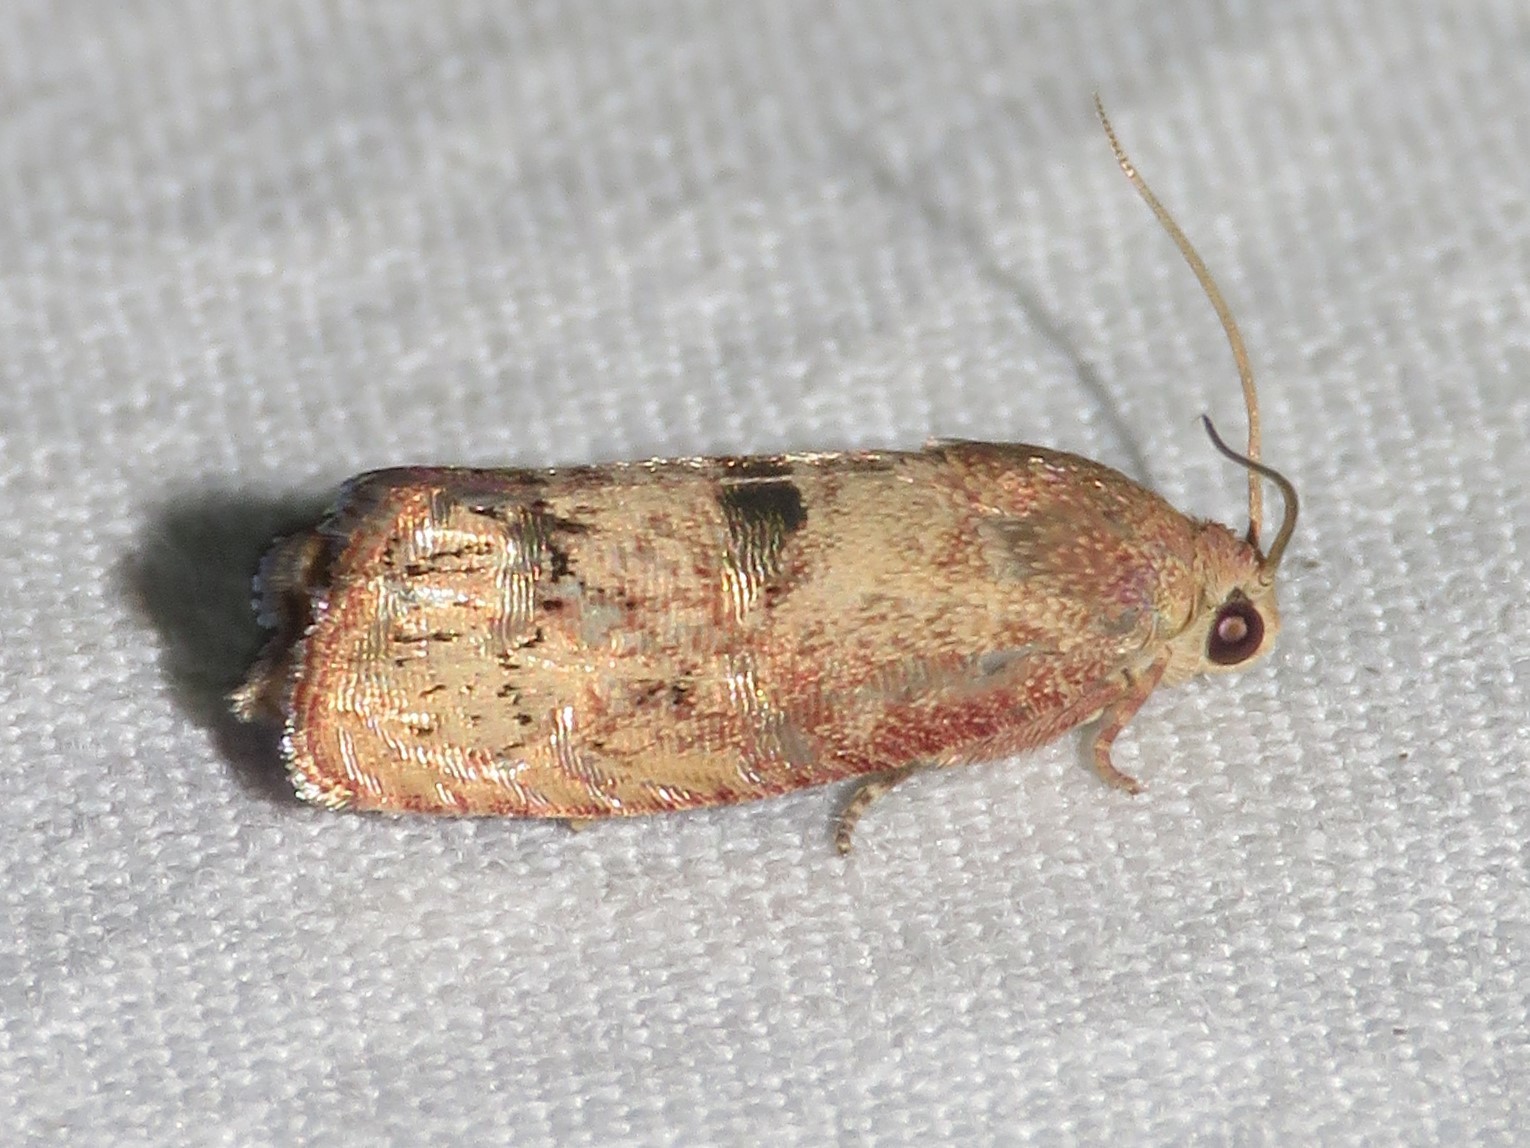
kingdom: Animalia
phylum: Arthropoda
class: Insecta
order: Lepidoptera
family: Tortricidae
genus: Cydia
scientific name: Cydia latiferreana
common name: Filbertworm moth
